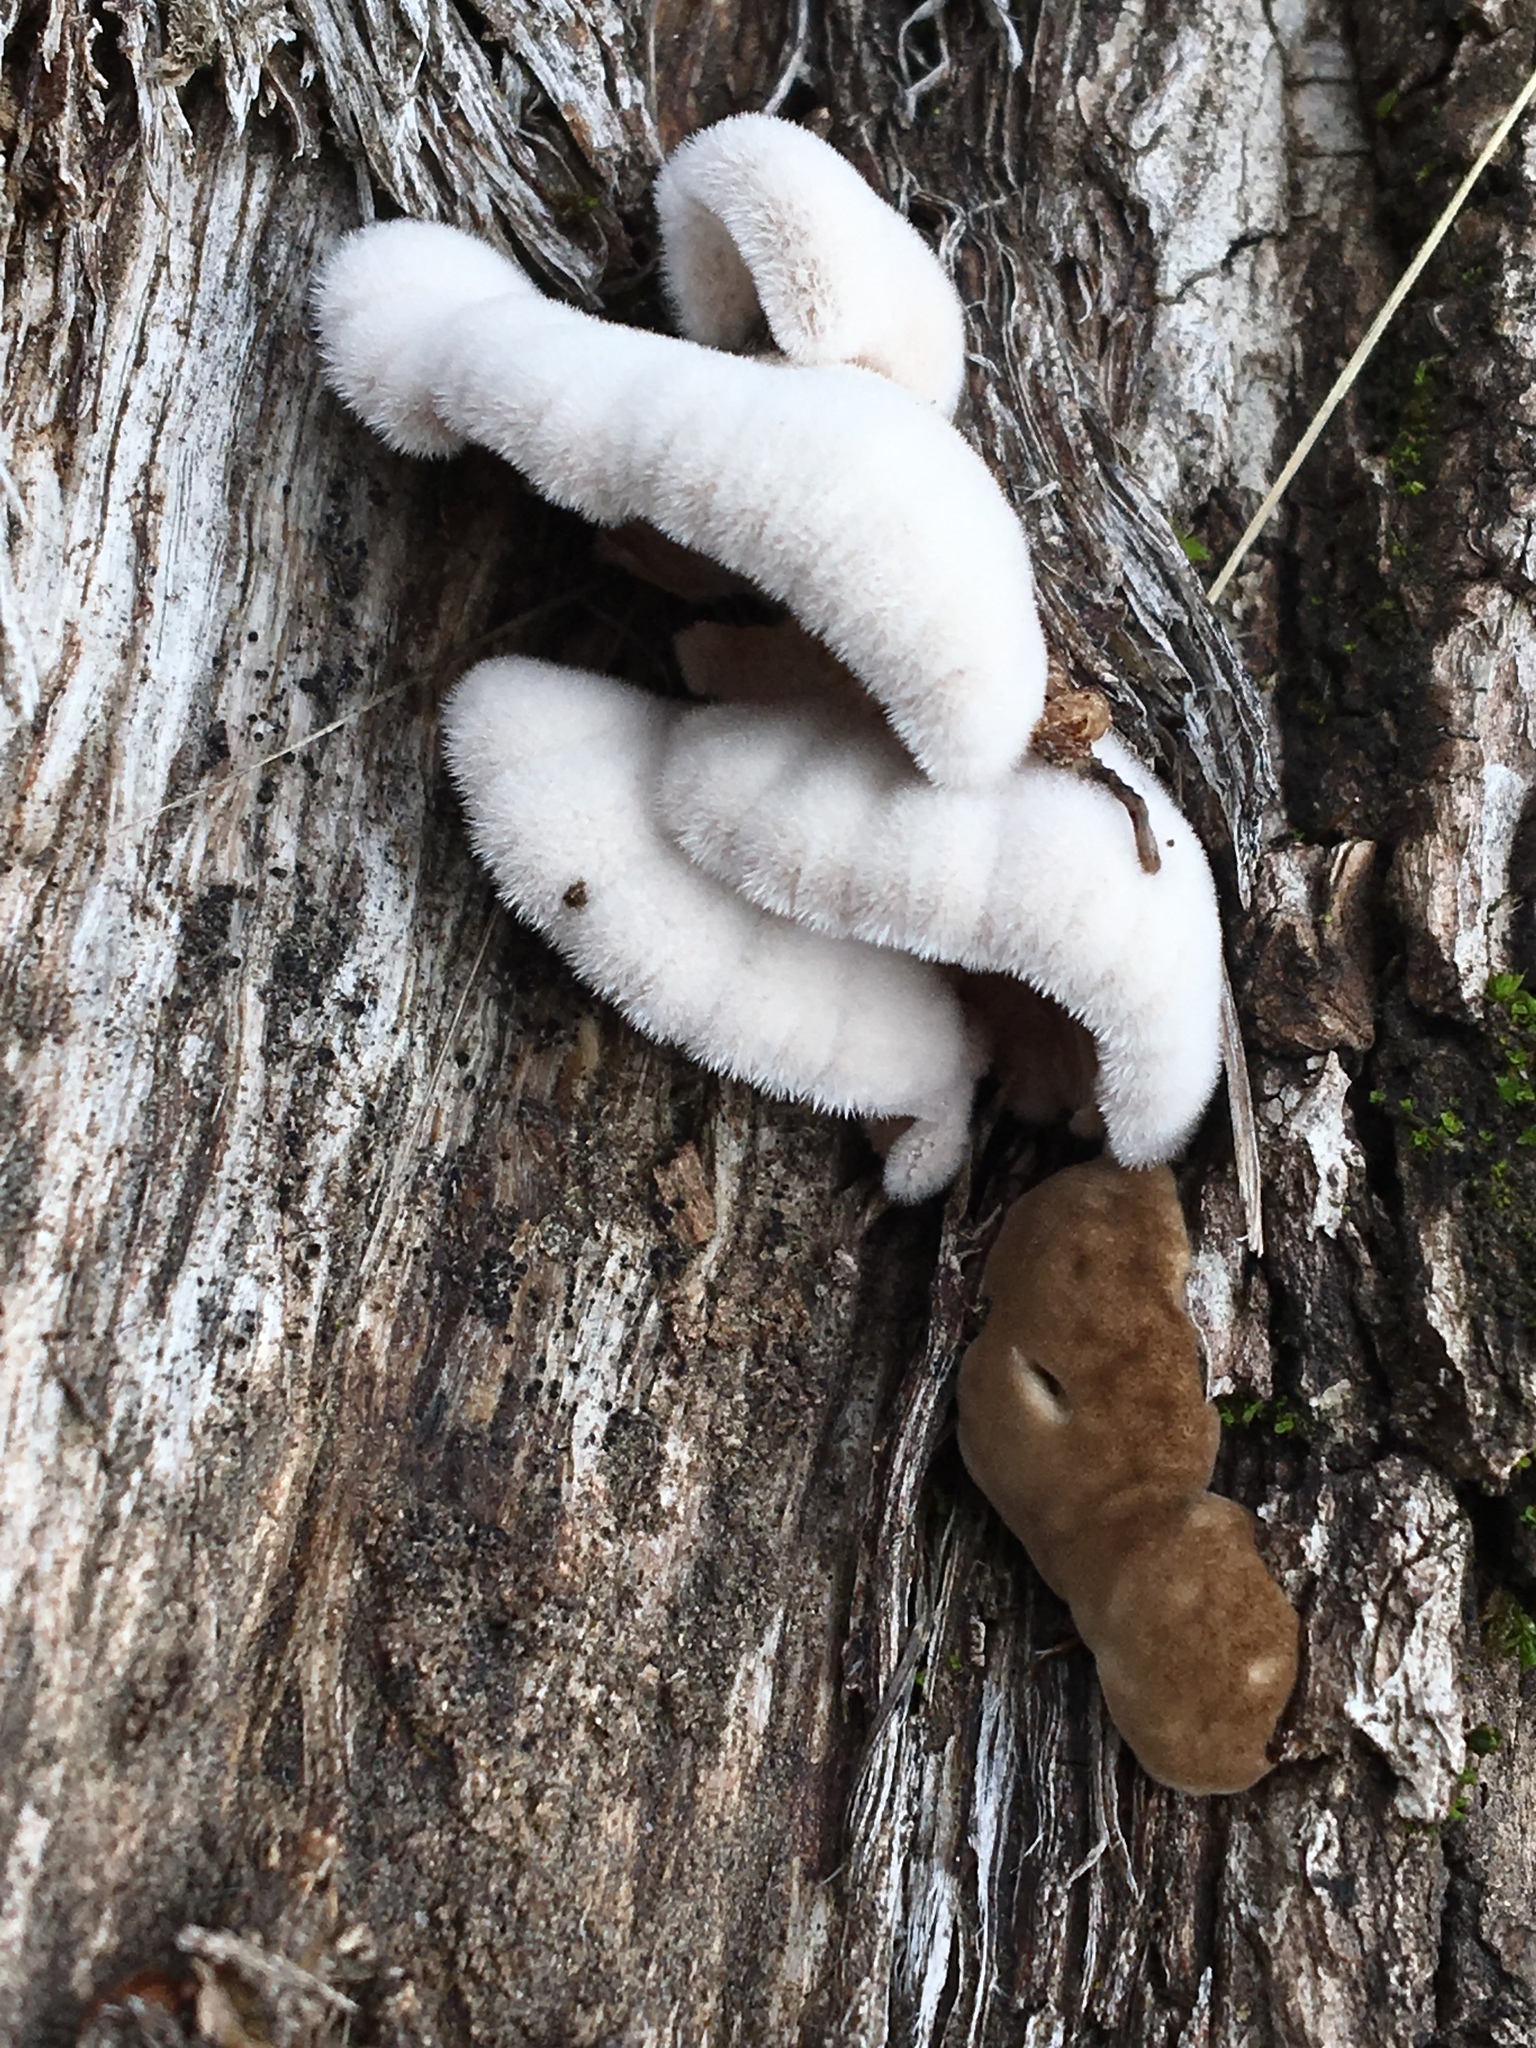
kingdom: Fungi
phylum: Basidiomycota
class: Agaricomycetes
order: Agaricales
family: Schizophyllaceae
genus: Schizophyllum
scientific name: Schizophyllum commune
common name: Common porecrust
